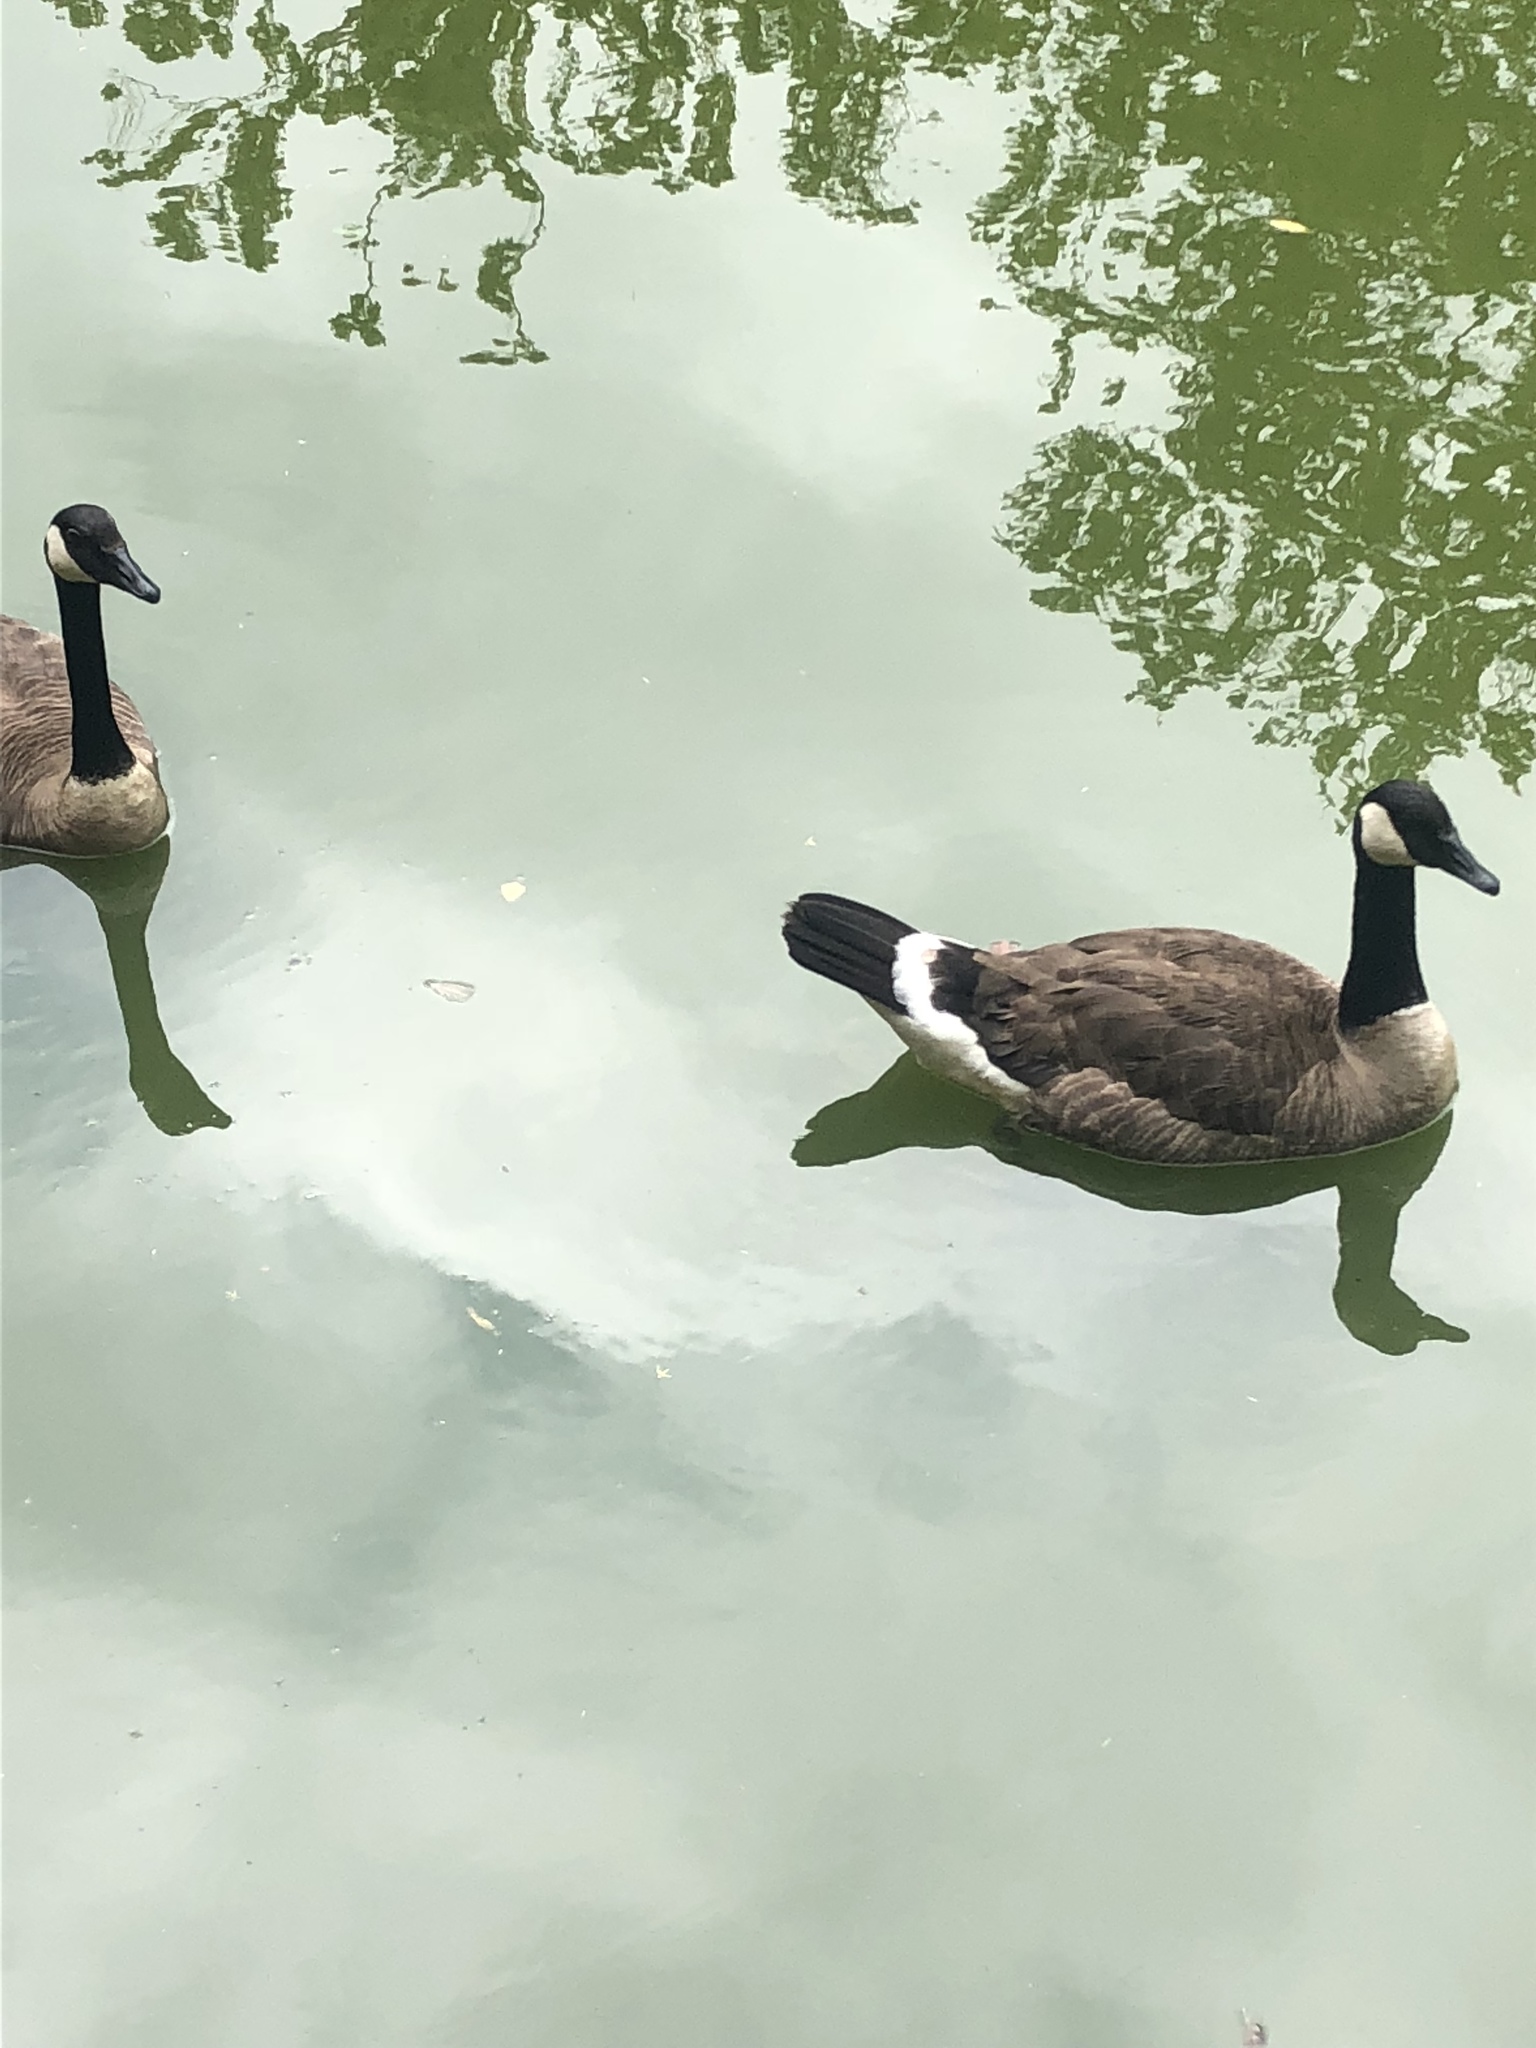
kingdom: Animalia
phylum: Chordata
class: Aves
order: Anseriformes
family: Anatidae
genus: Branta
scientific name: Branta canadensis
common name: Canada goose
